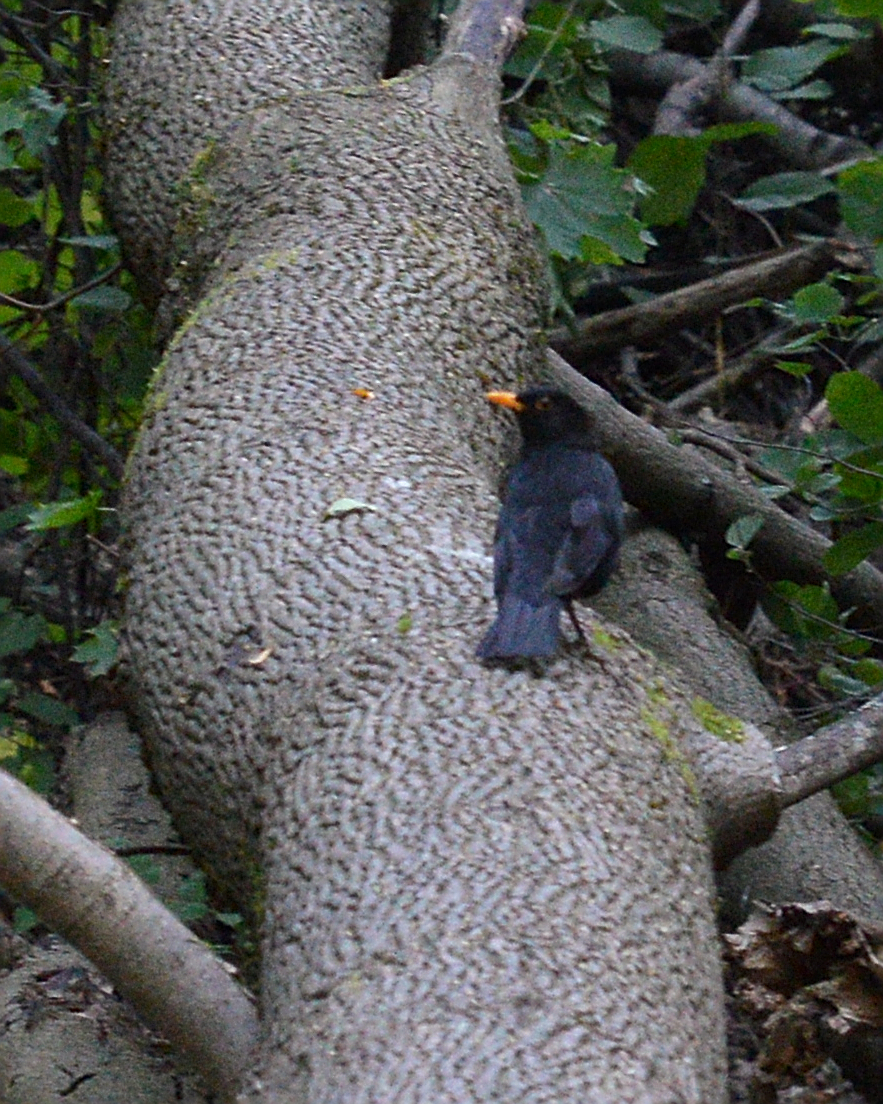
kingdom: Animalia
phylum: Chordata
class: Aves
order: Passeriformes
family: Turdidae
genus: Turdus
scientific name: Turdus merula
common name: Common blackbird
